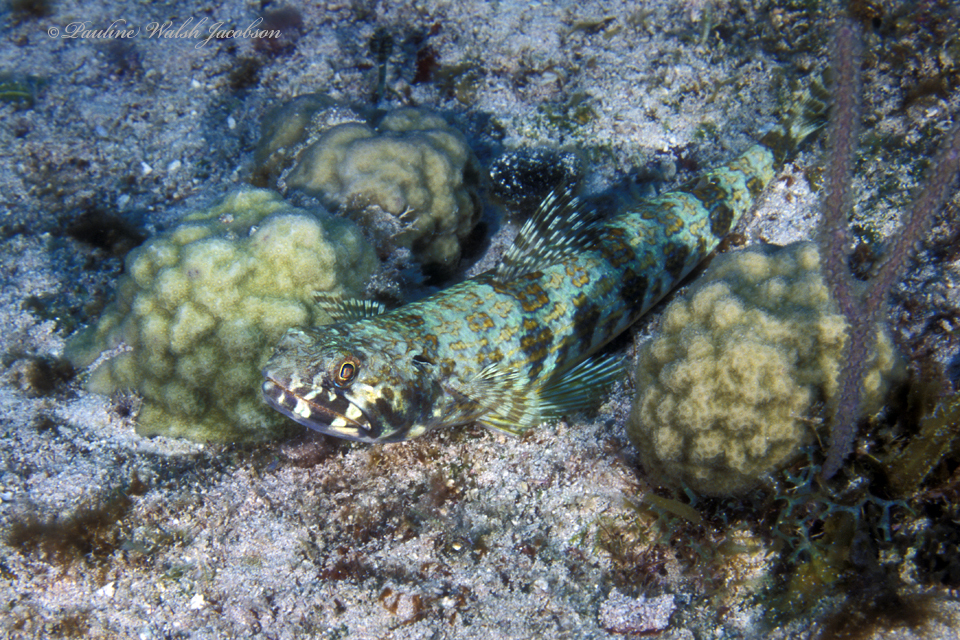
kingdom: Animalia
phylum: Chordata
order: Aulopiformes
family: Synodontidae
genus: Synodus
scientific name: Synodus intermedius
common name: Sand diver
